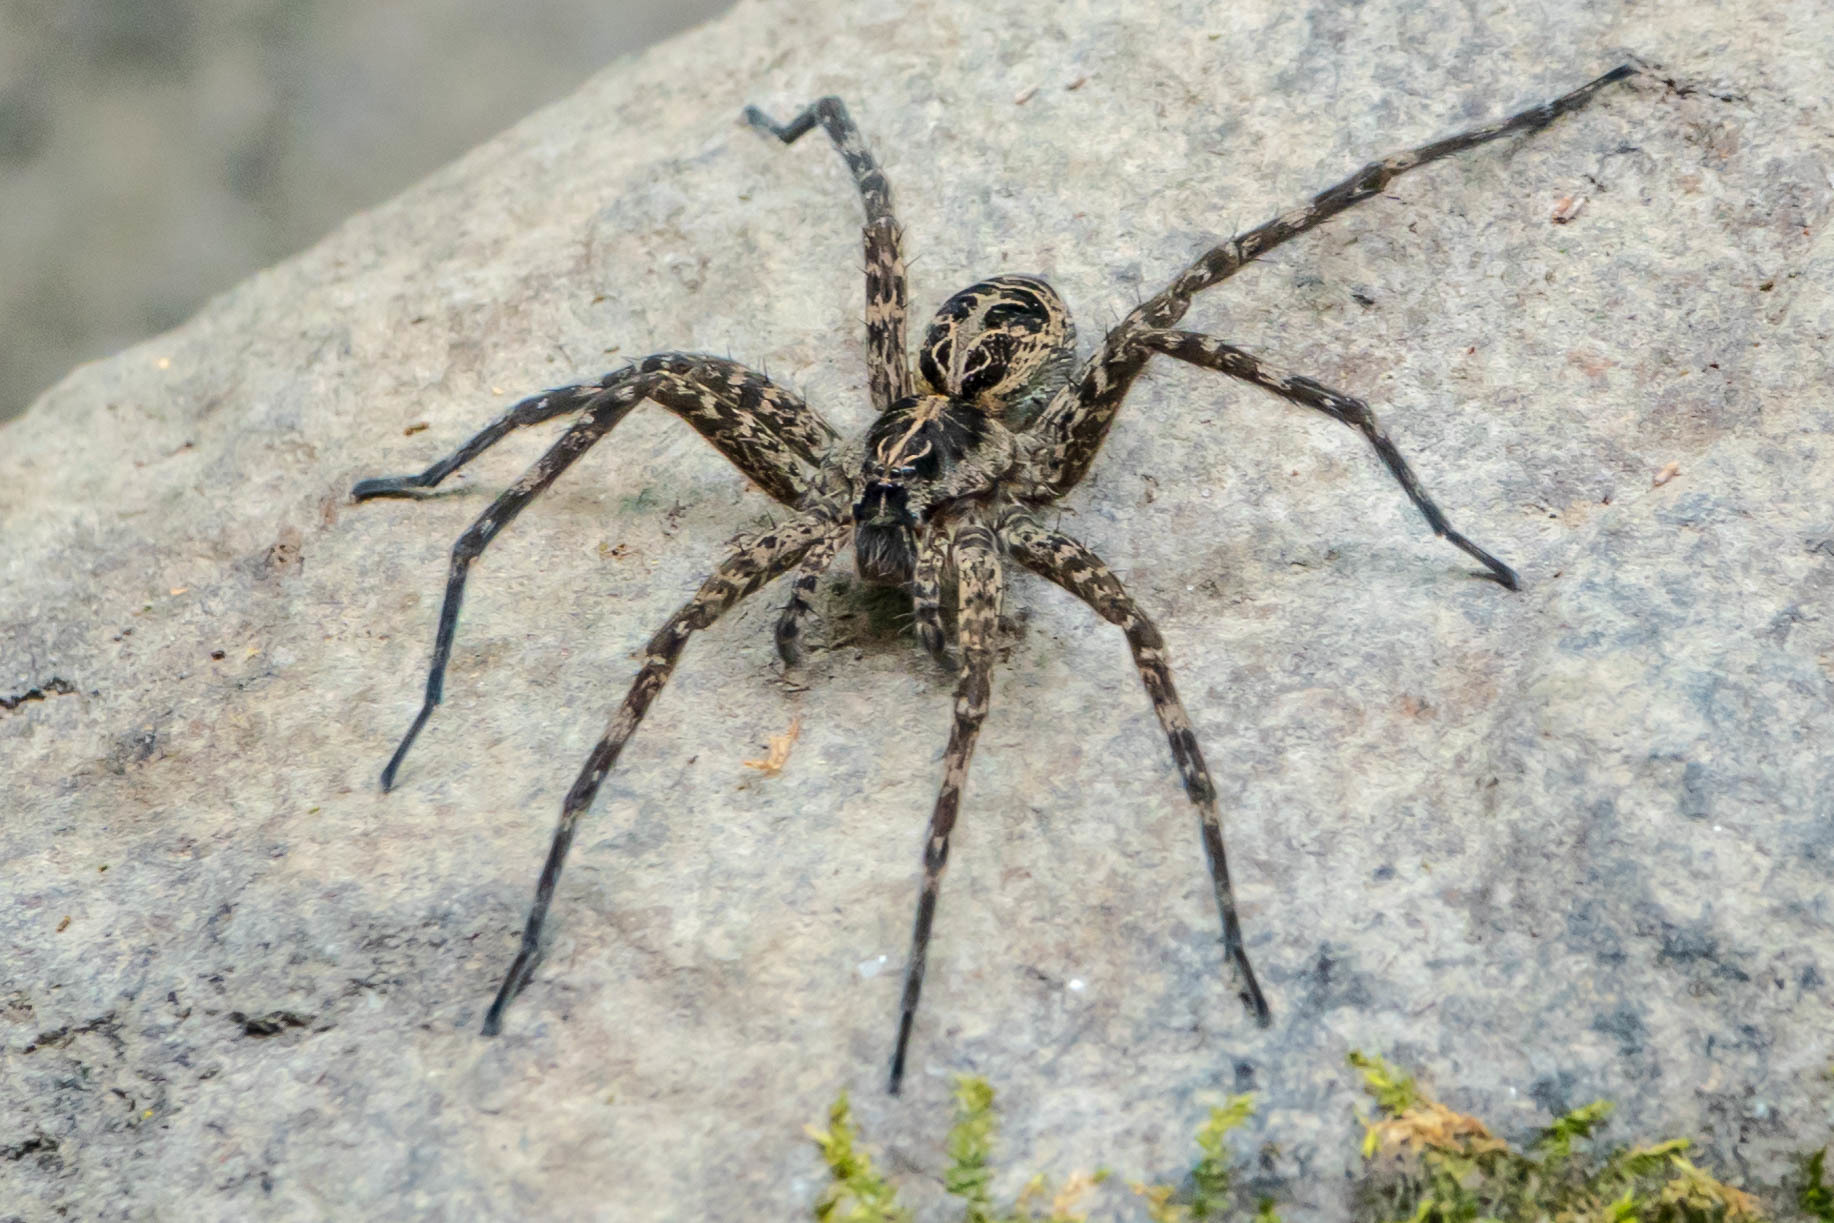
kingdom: Animalia
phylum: Arthropoda
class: Arachnida
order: Araneae
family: Pisauridae
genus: Dolomedes
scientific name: Dolomedes scriptus
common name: Striped fishing spider
